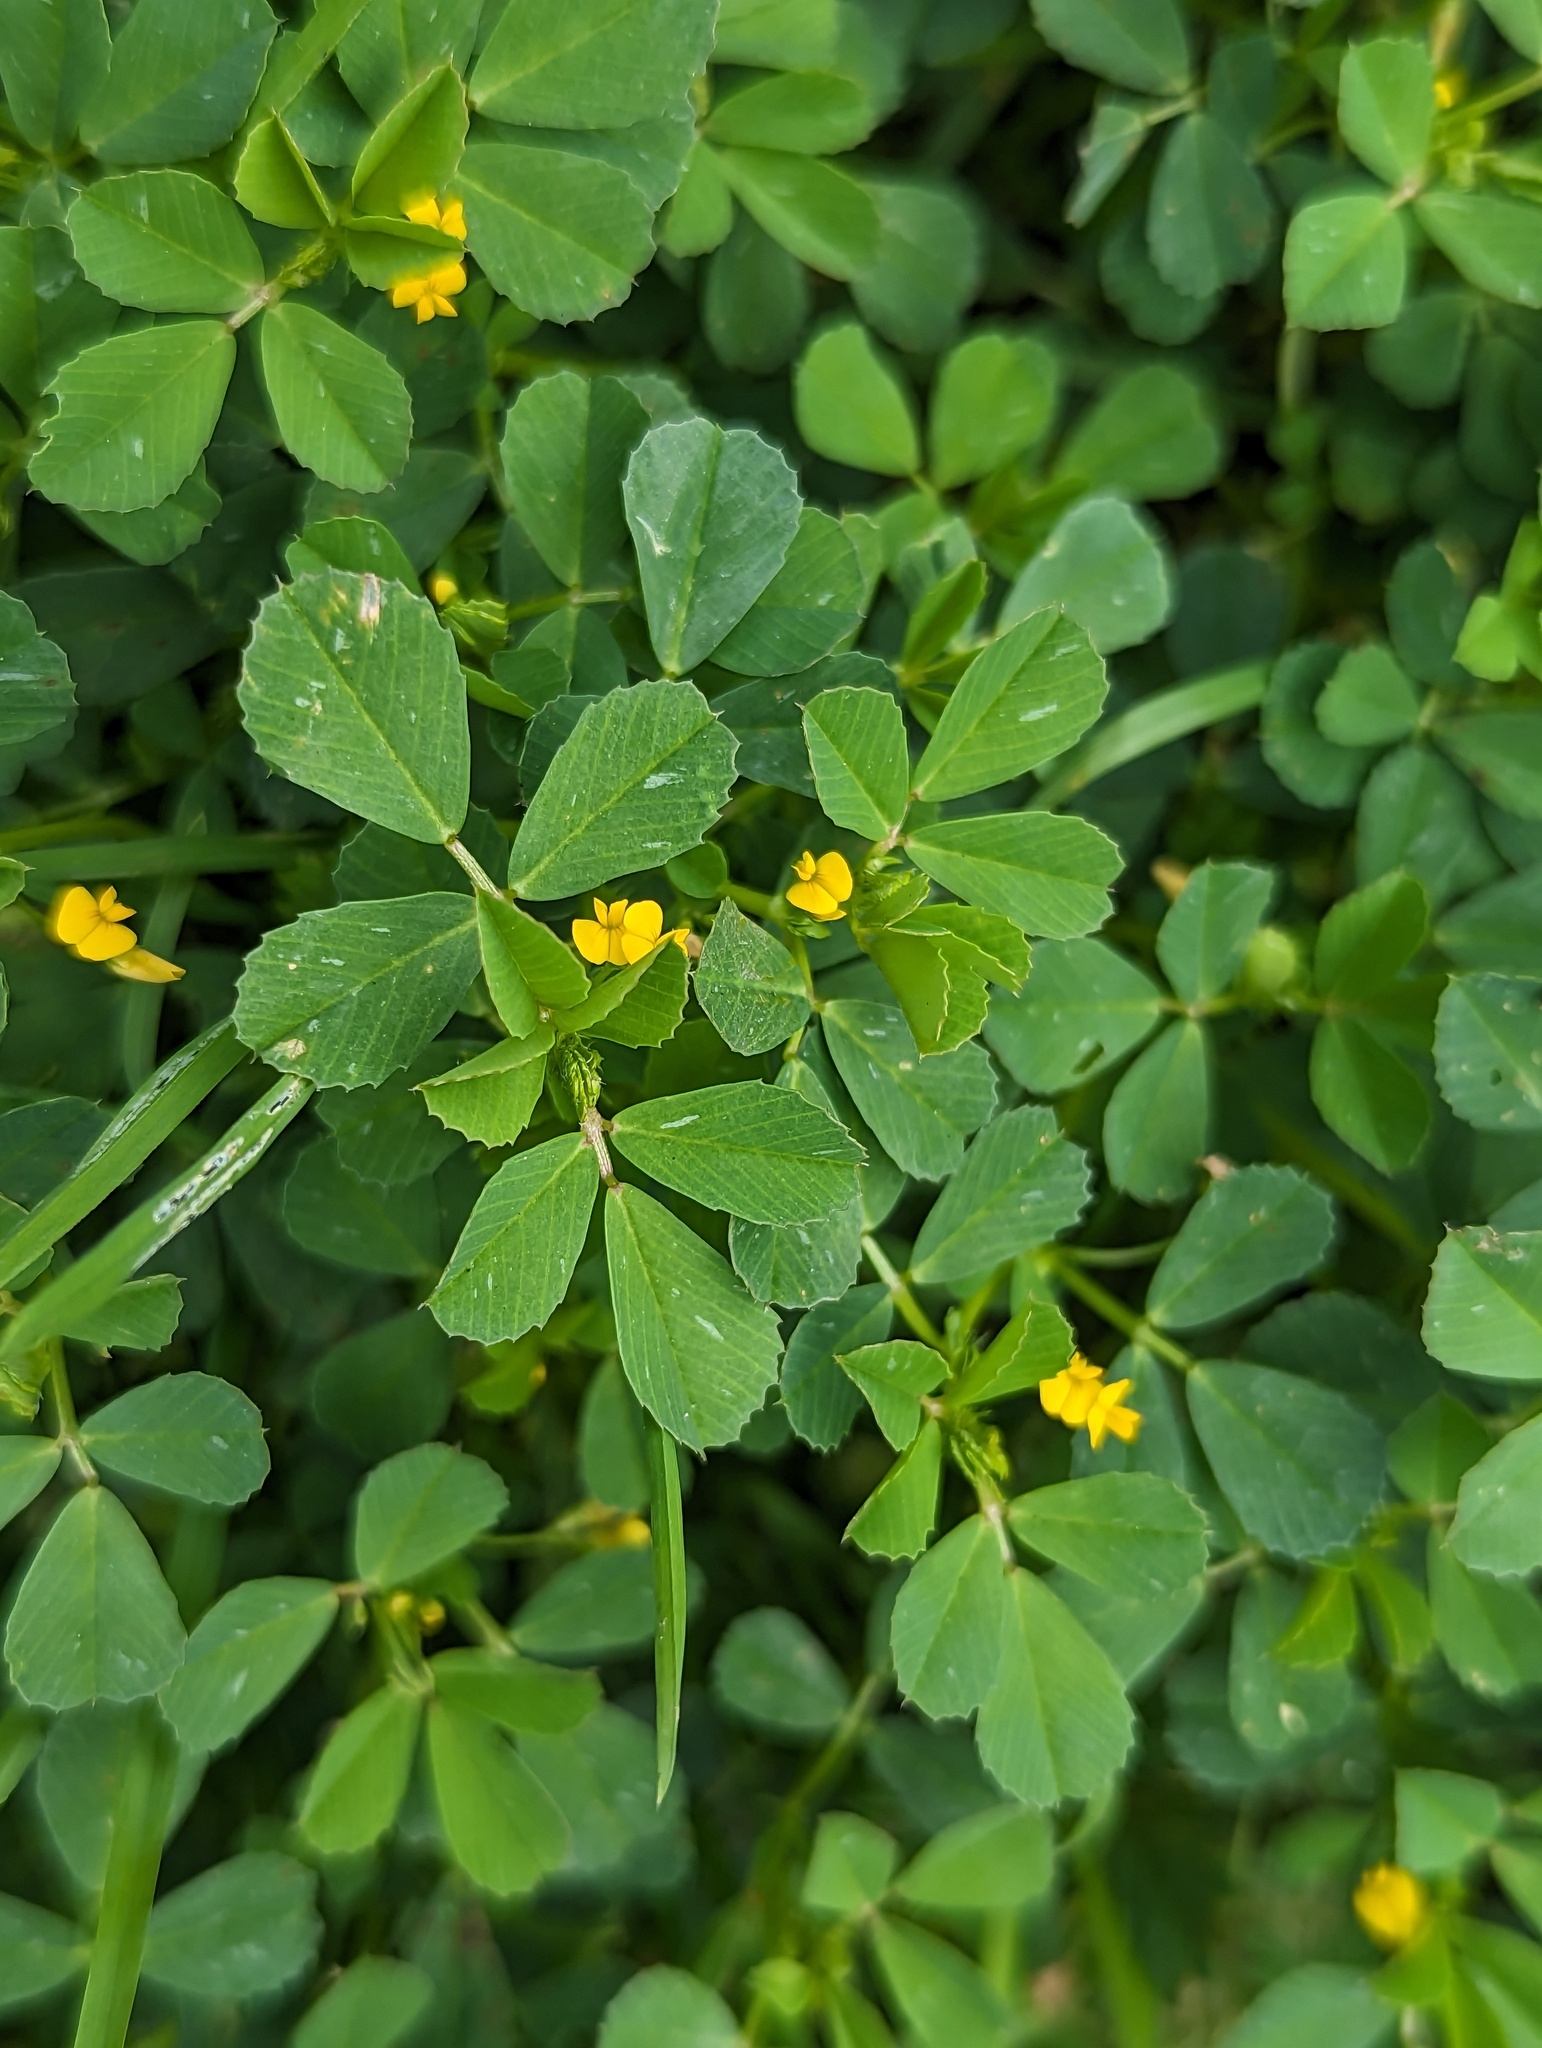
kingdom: Plantae
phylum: Tracheophyta
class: Magnoliopsida
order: Fabales
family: Fabaceae
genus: Medicago
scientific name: Medicago polymorpha
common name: Burclover
